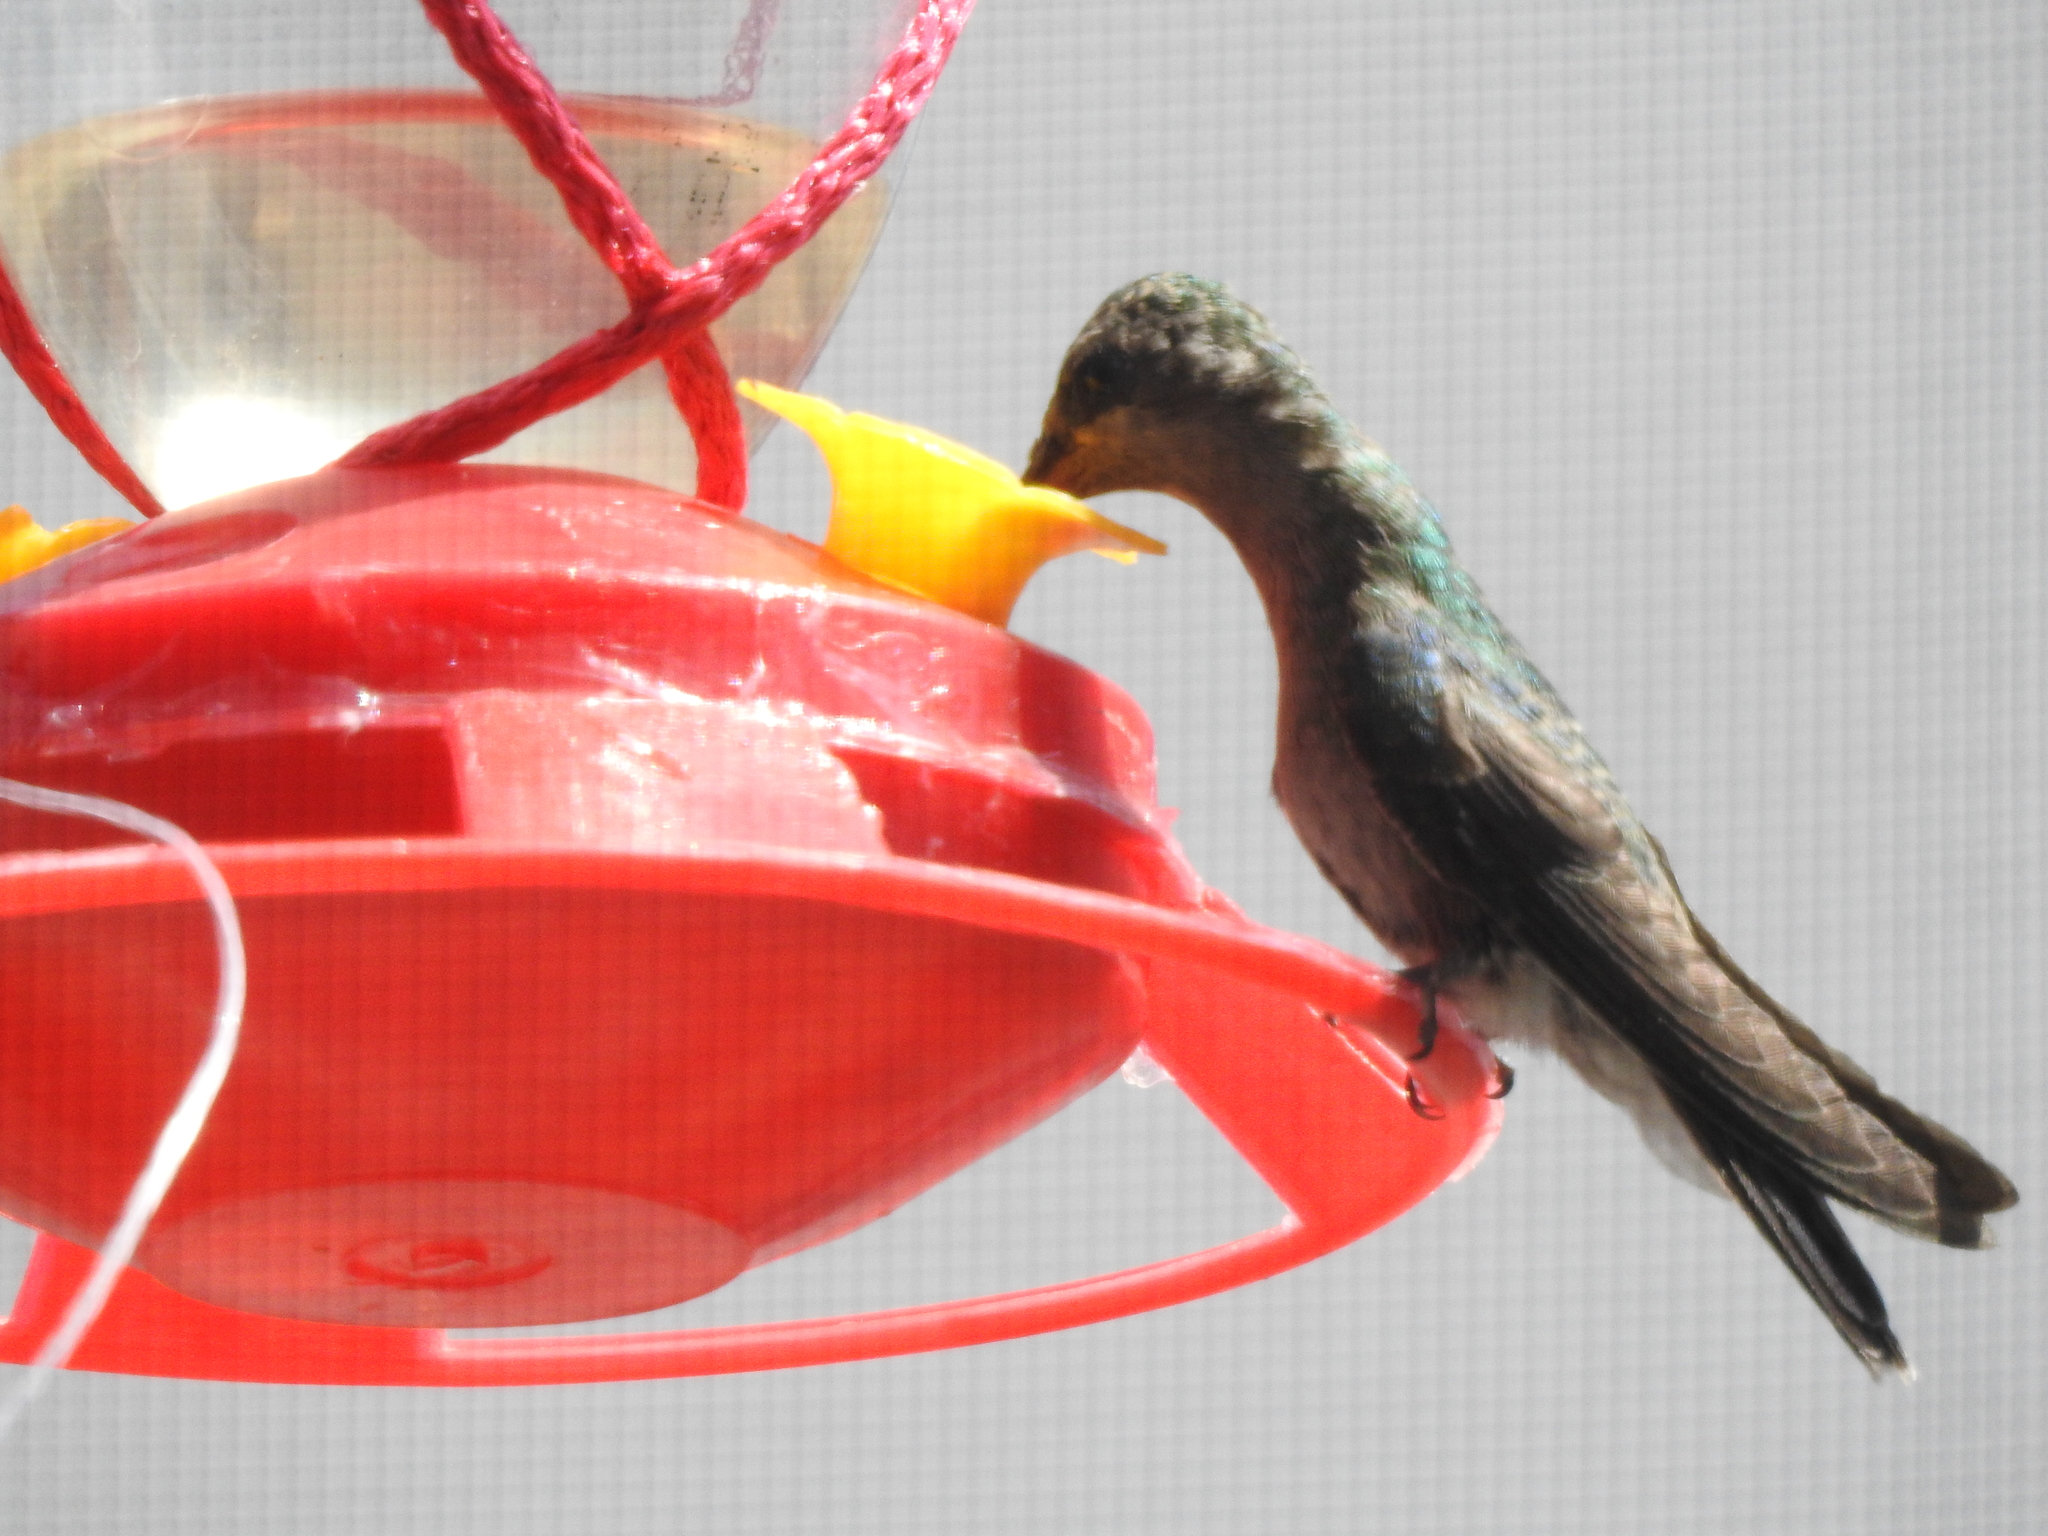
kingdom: Animalia
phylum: Chordata
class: Aves
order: Apodiformes
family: Trochilidae
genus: Cynanthus
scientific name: Cynanthus latirostris
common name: Broad-billed hummingbird
